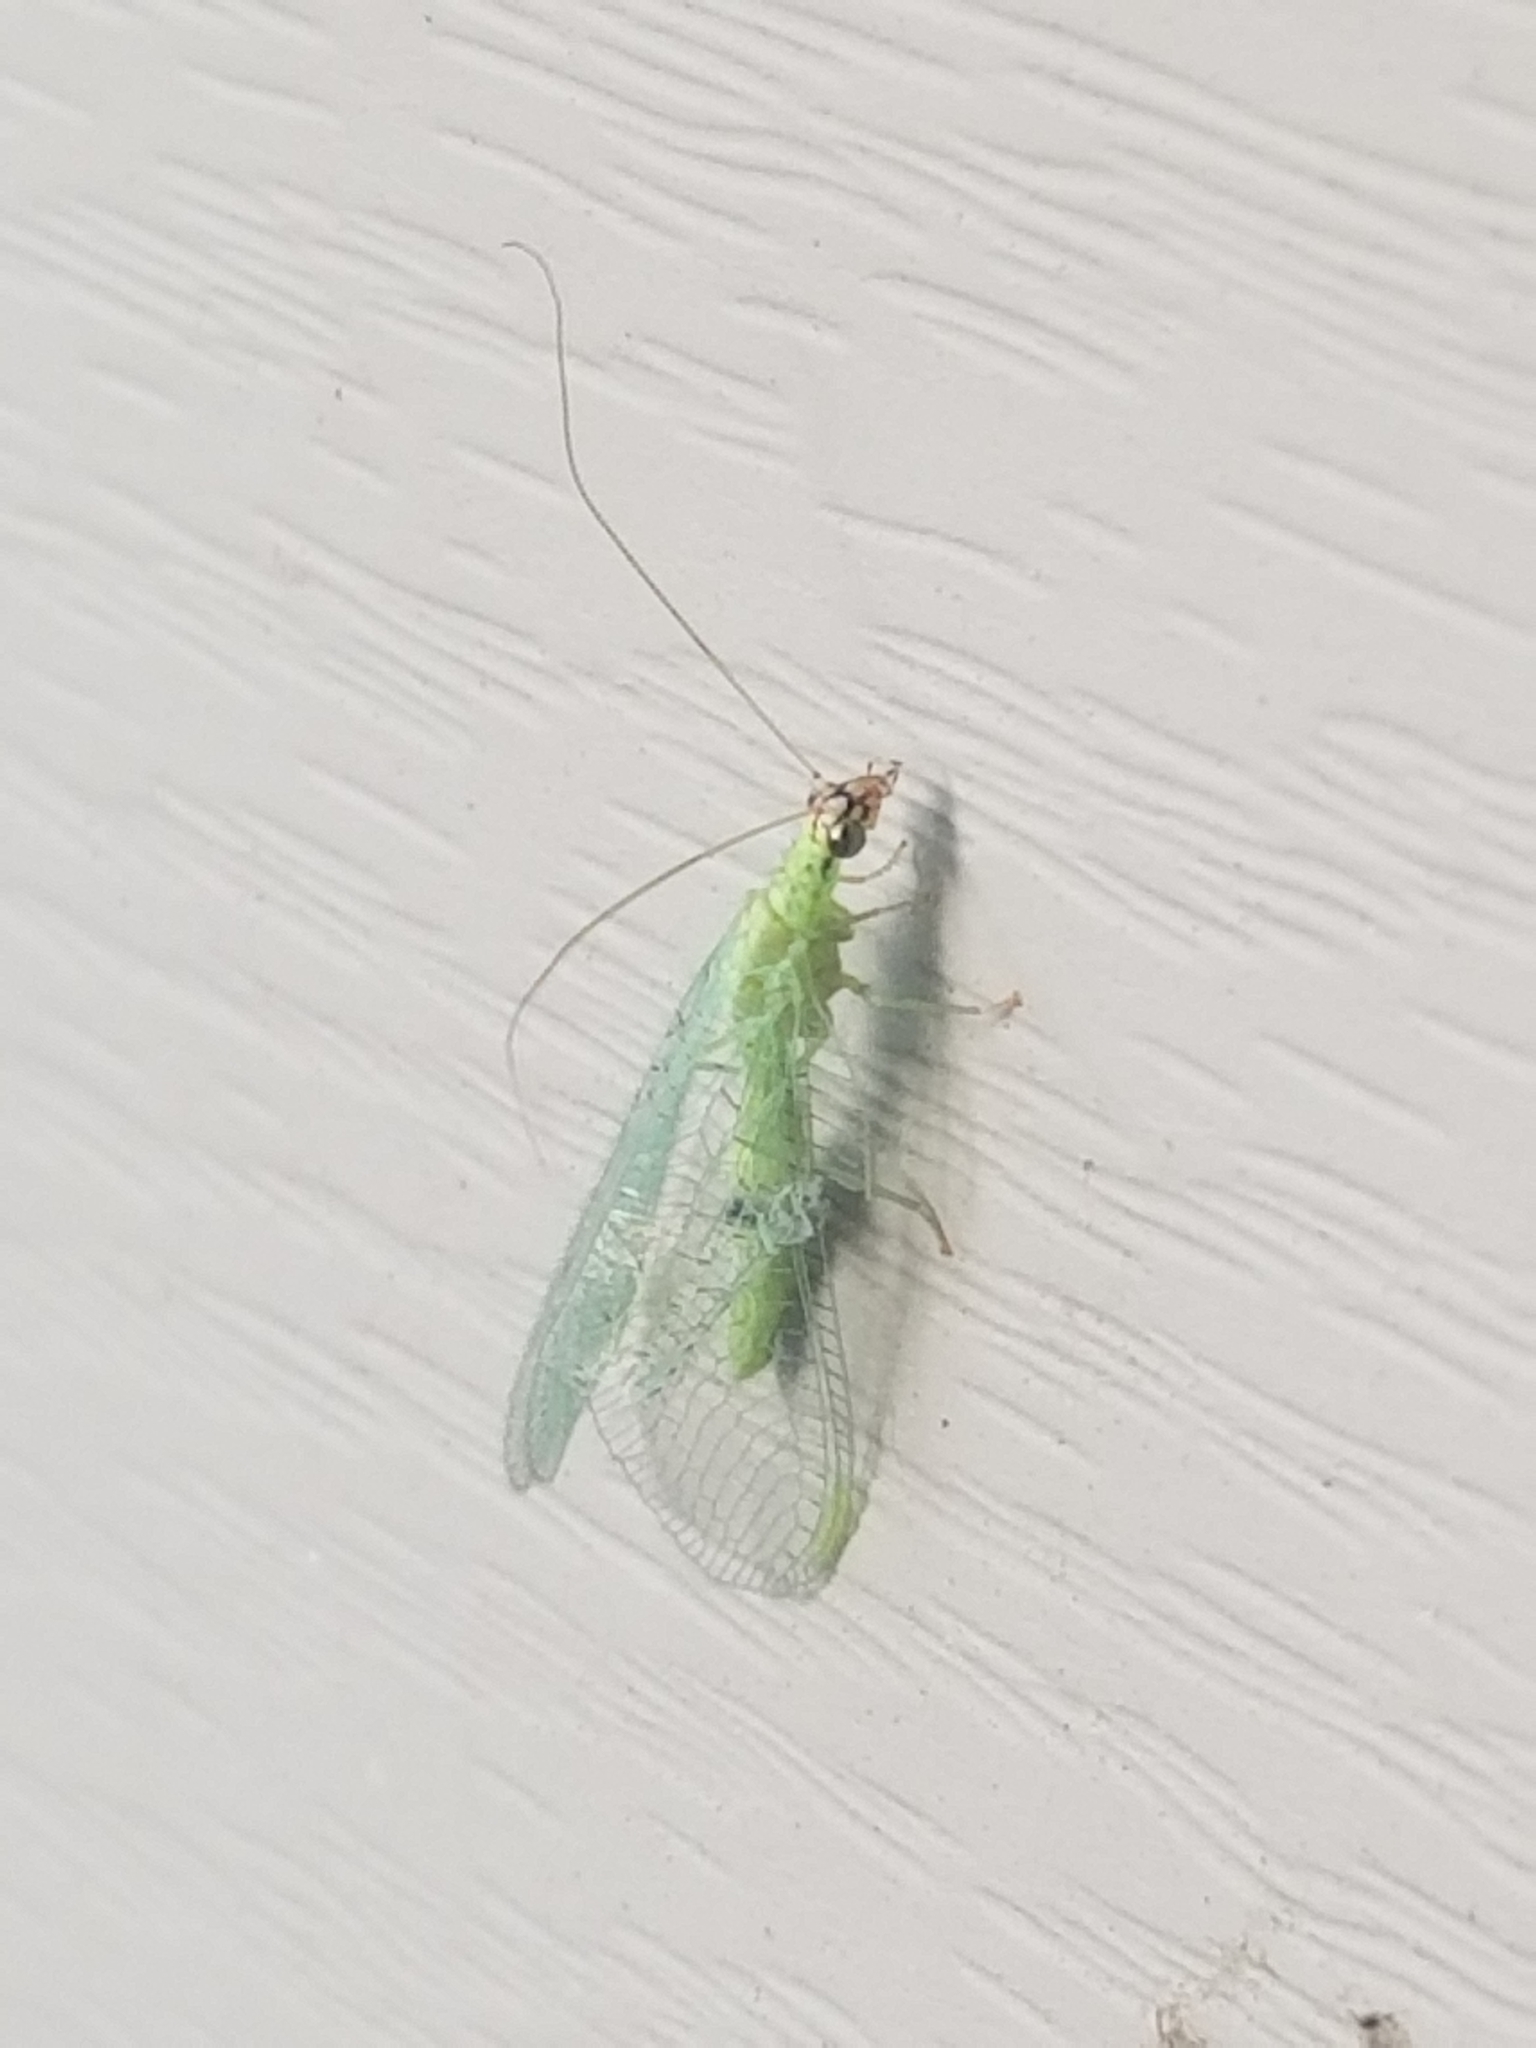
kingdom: Animalia
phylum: Arthropoda
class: Insecta
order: Neuroptera
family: Chrysopidae
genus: Chrysopa
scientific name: Chrysopa oculata
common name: Golden-eyed lacewing
